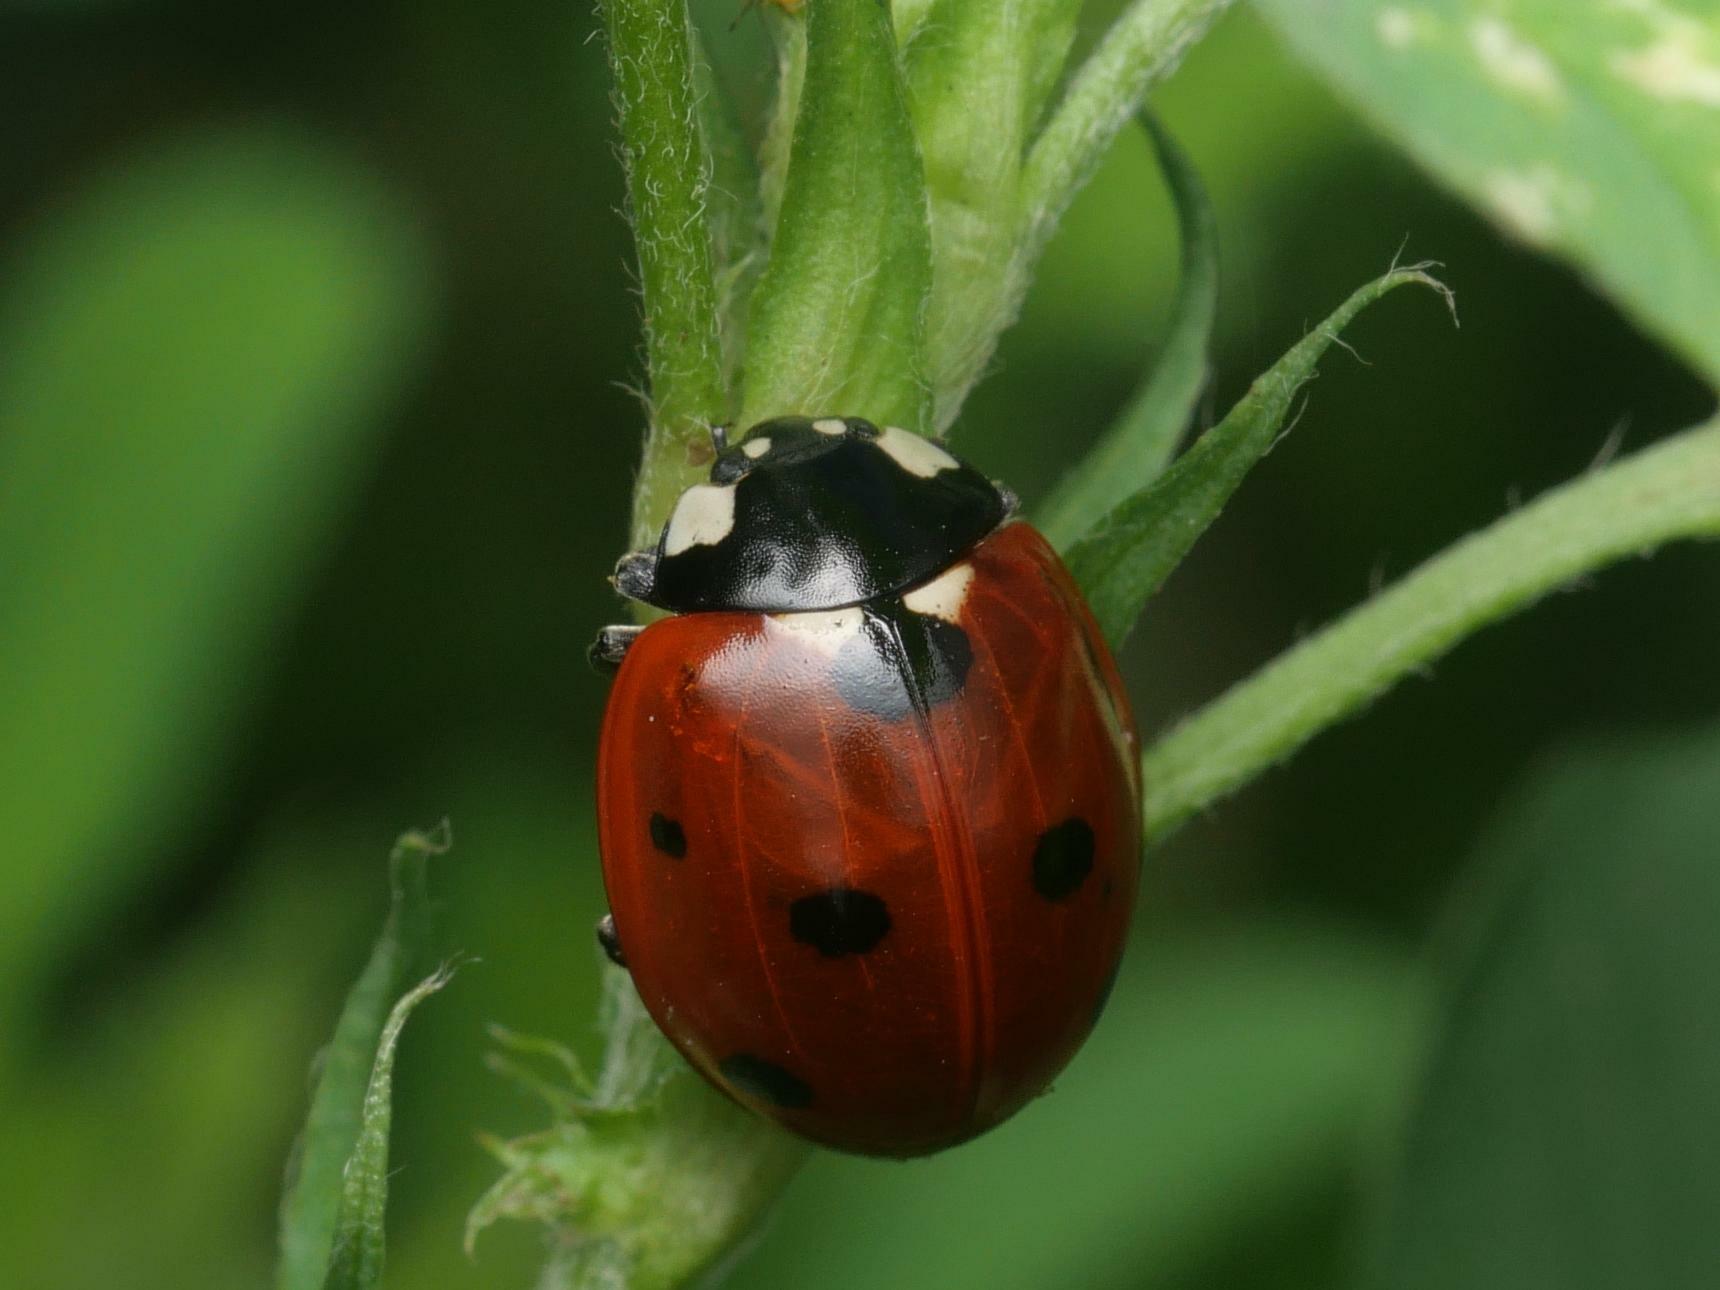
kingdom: Animalia
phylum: Arthropoda
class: Insecta
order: Coleoptera
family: Coccinellidae
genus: Coccinella
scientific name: Coccinella septempunctata
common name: Sevenspotted lady beetle
